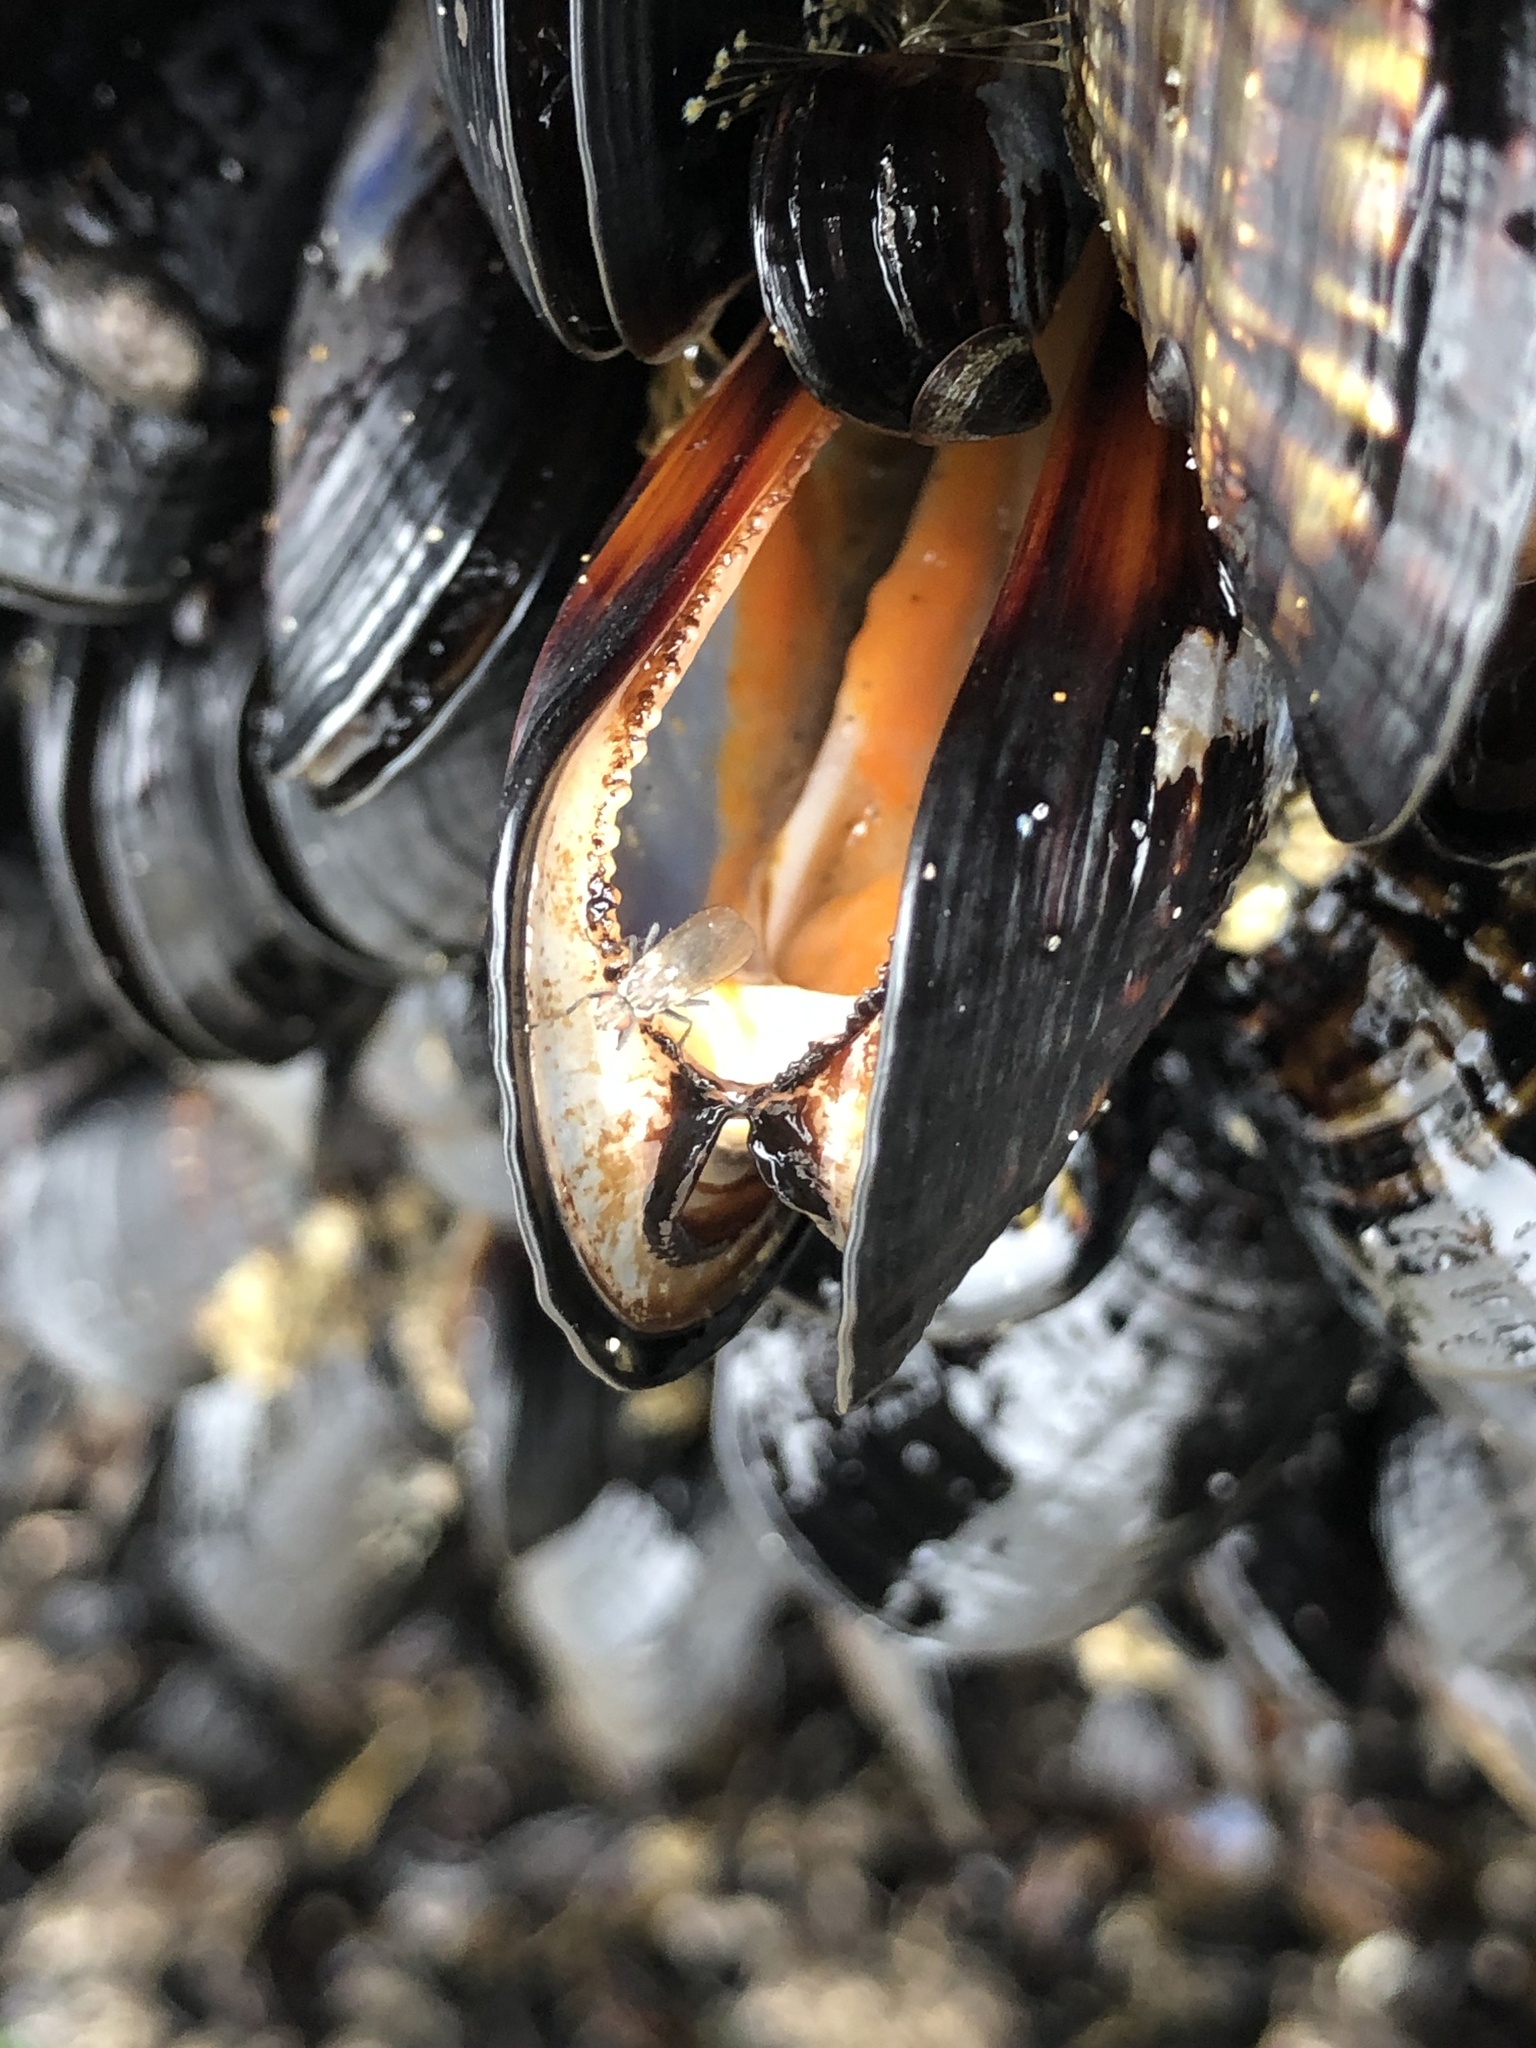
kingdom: Animalia
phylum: Mollusca
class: Bivalvia
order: Mytilida
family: Mytilidae
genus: Mytilus
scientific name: Mytilus californianus
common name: California mussel
